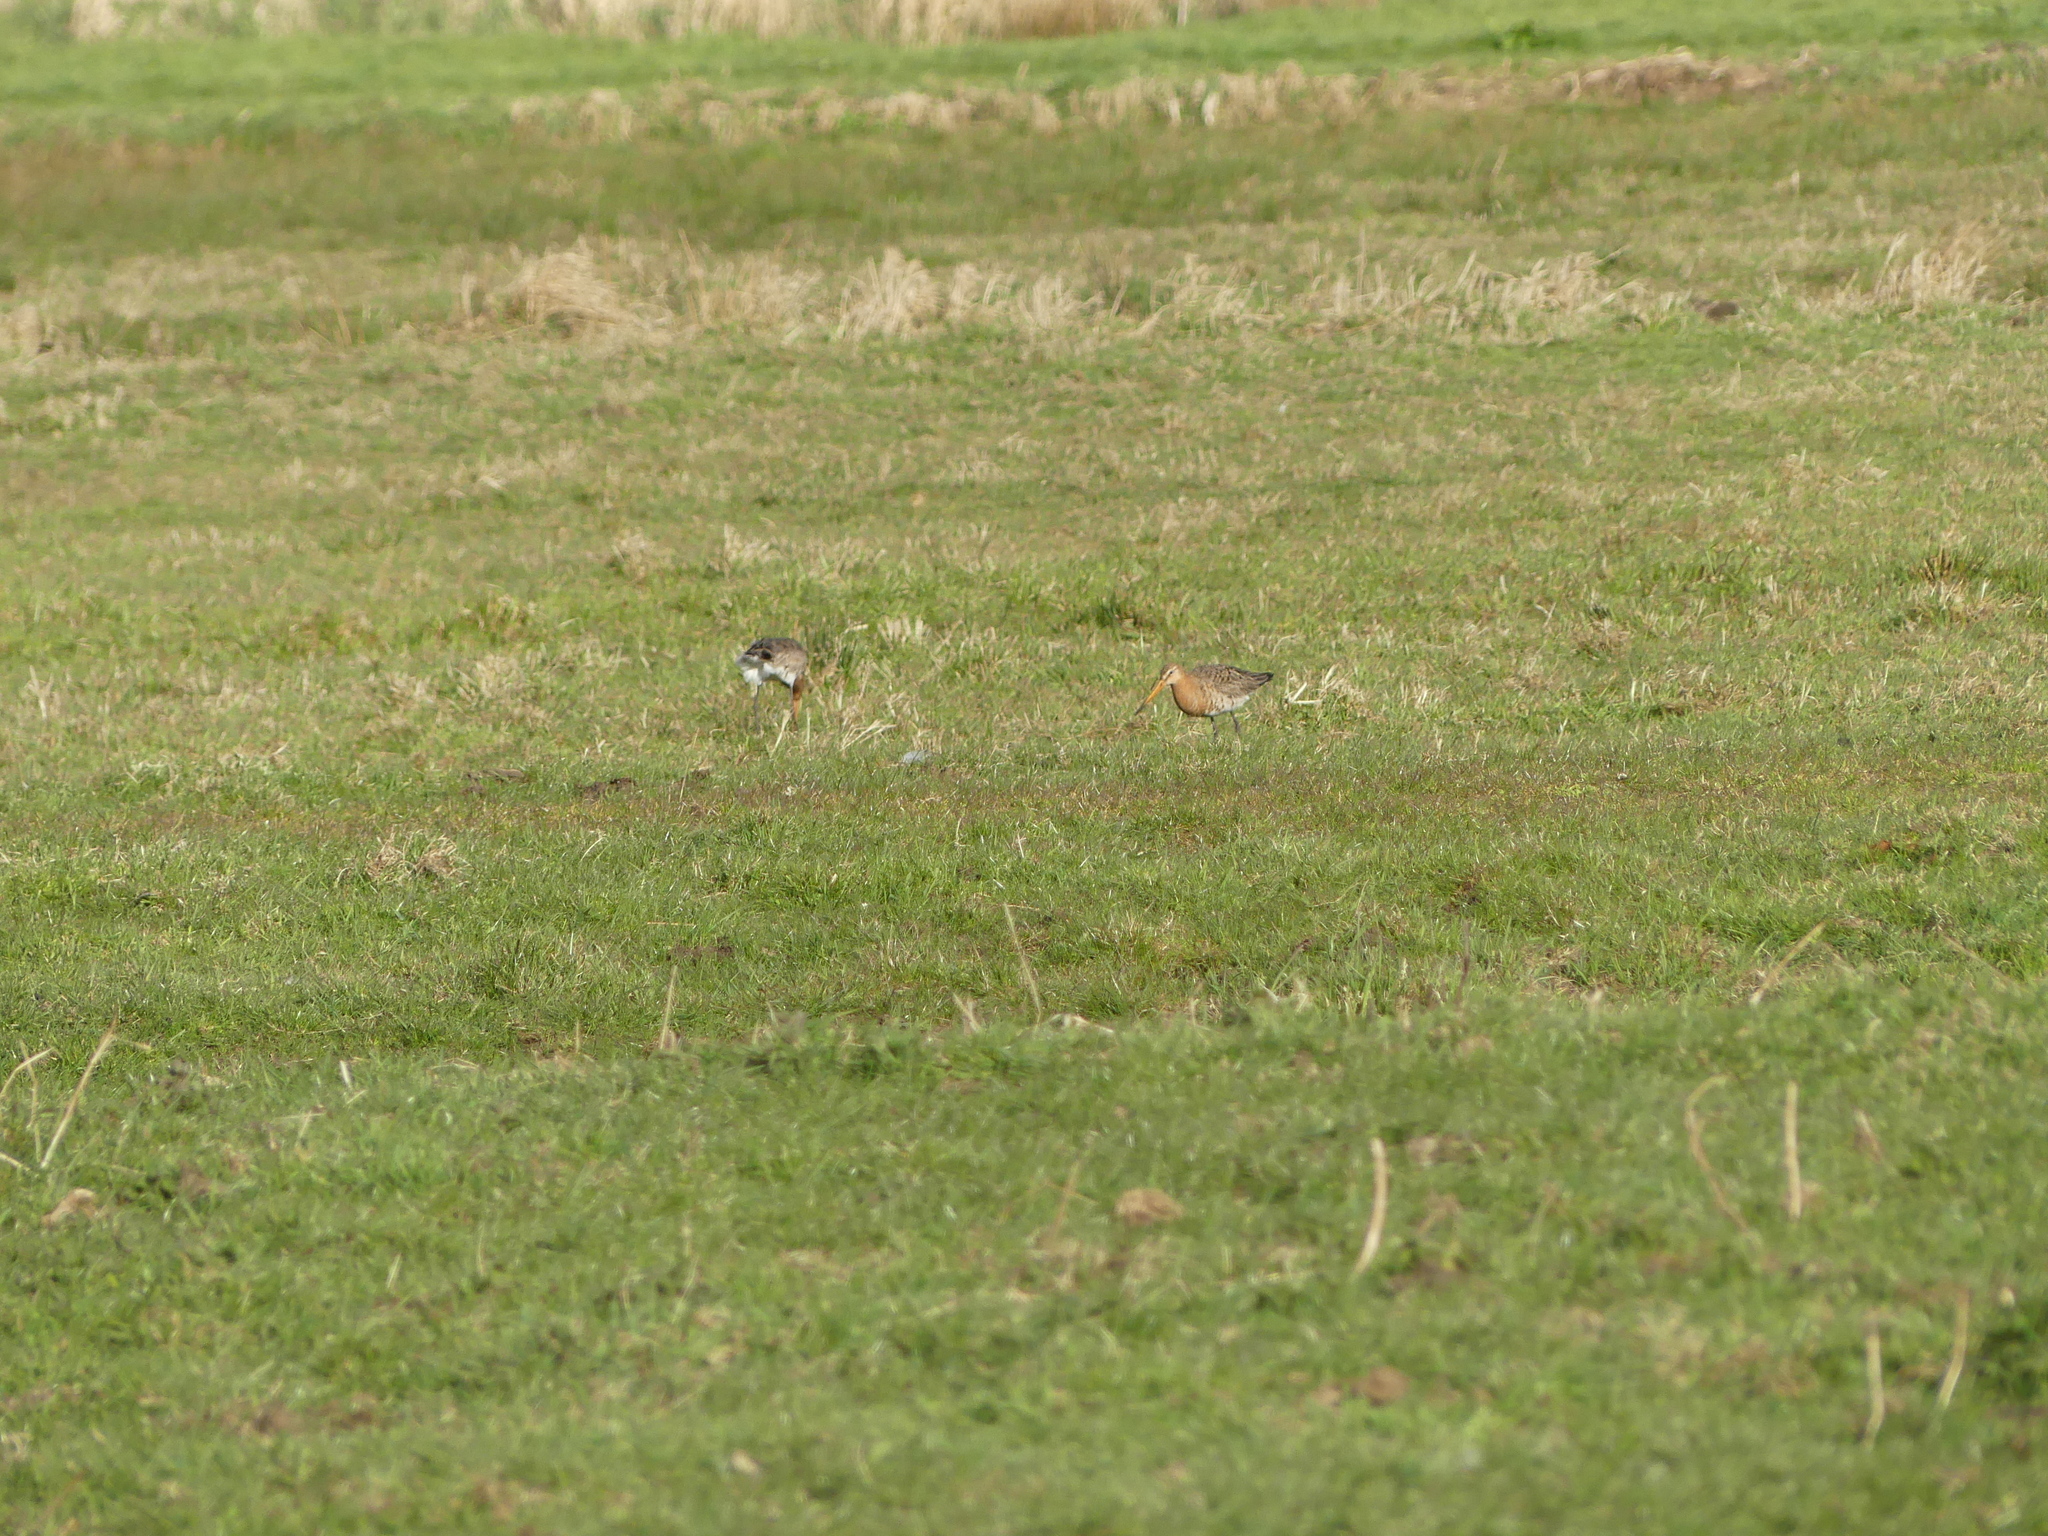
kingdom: Animalia
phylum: Chordata
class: Aves
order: Charadriiformes
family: Scolopacidae
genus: Limosa
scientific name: Limosa limosa
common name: Black-tailed godwit
